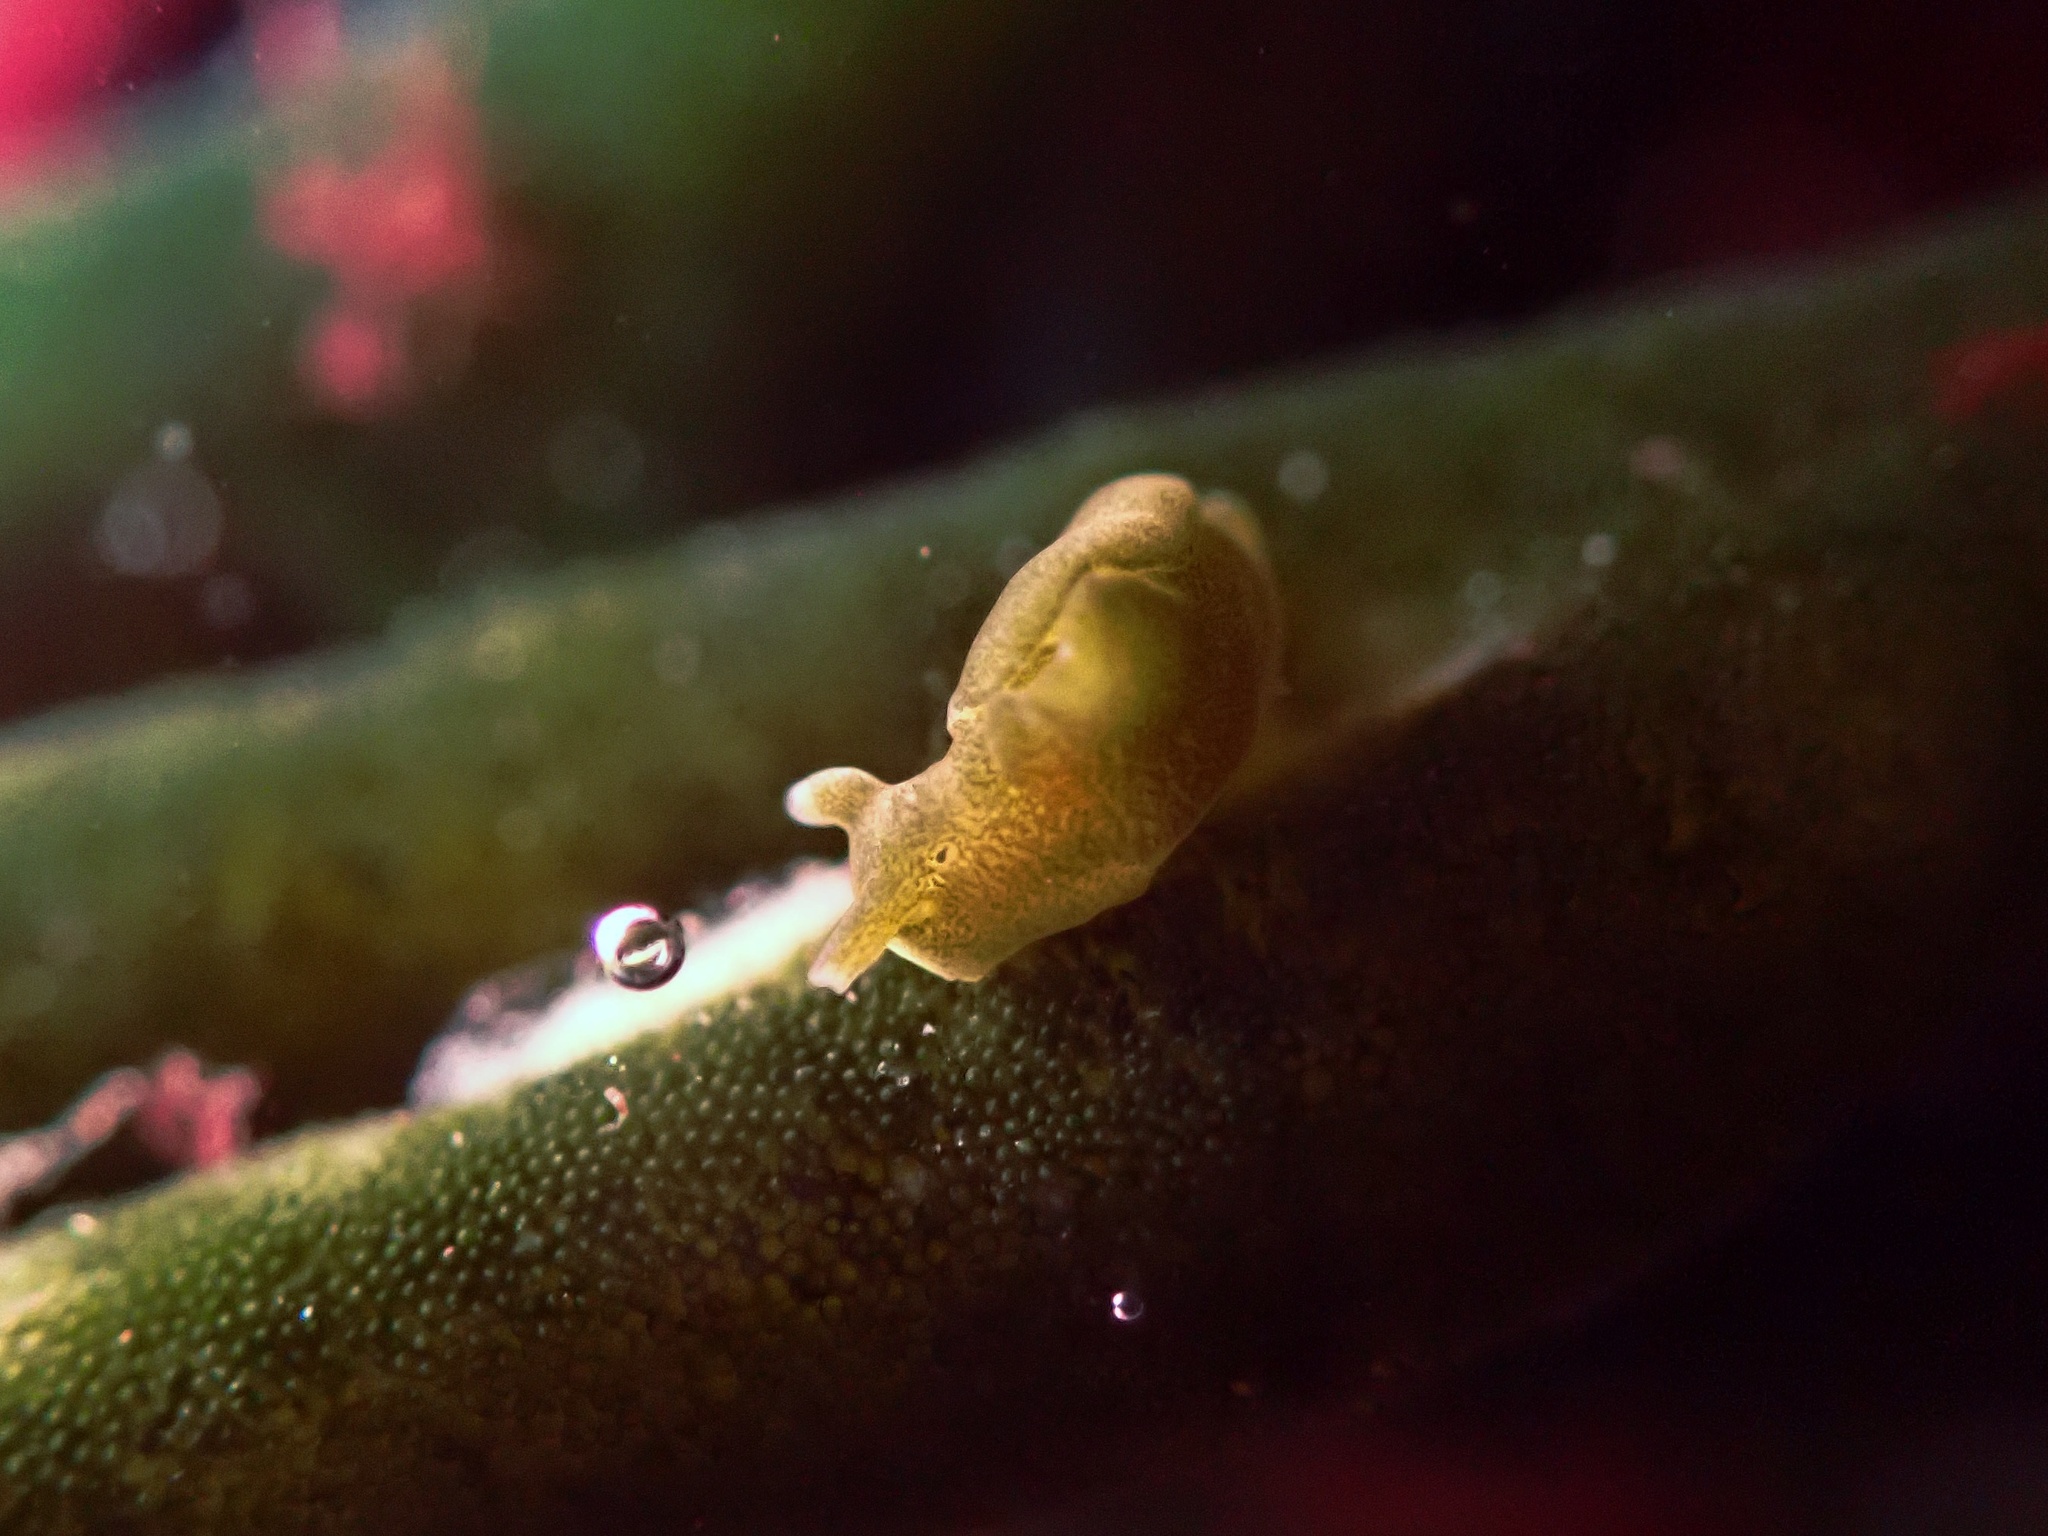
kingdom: Animalia
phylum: Mollusca
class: Gastropoda
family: Plakobranchidae
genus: Elysia
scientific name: Elysia hedgpethi
